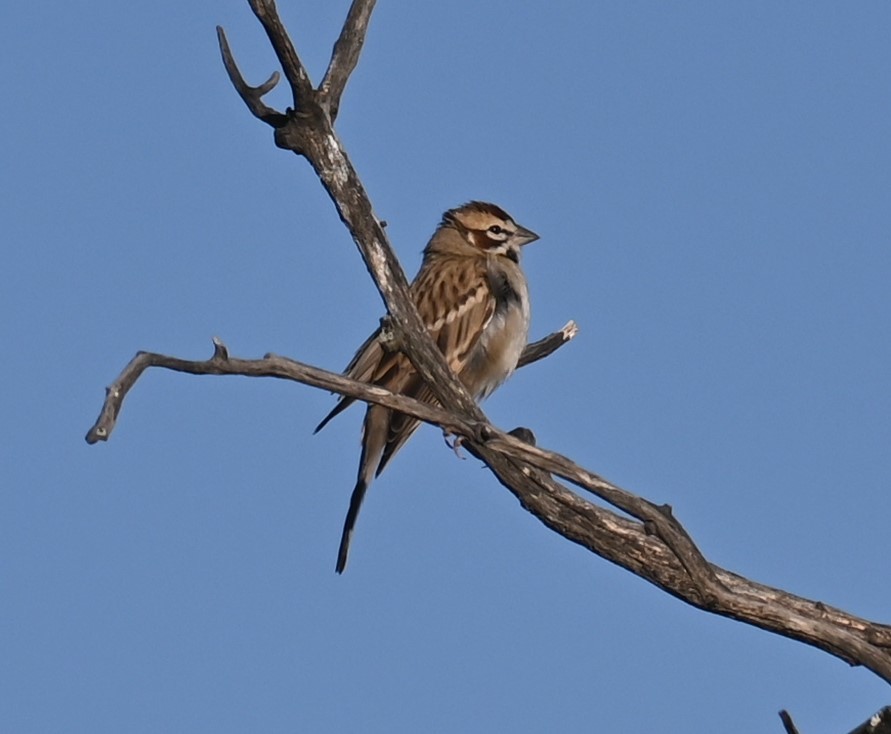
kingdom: Animalia
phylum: Chordata
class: Aves
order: Passeriformes
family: Passerellidae
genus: Chondestes
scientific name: Chondestes grammacus
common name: Lark sparrow
